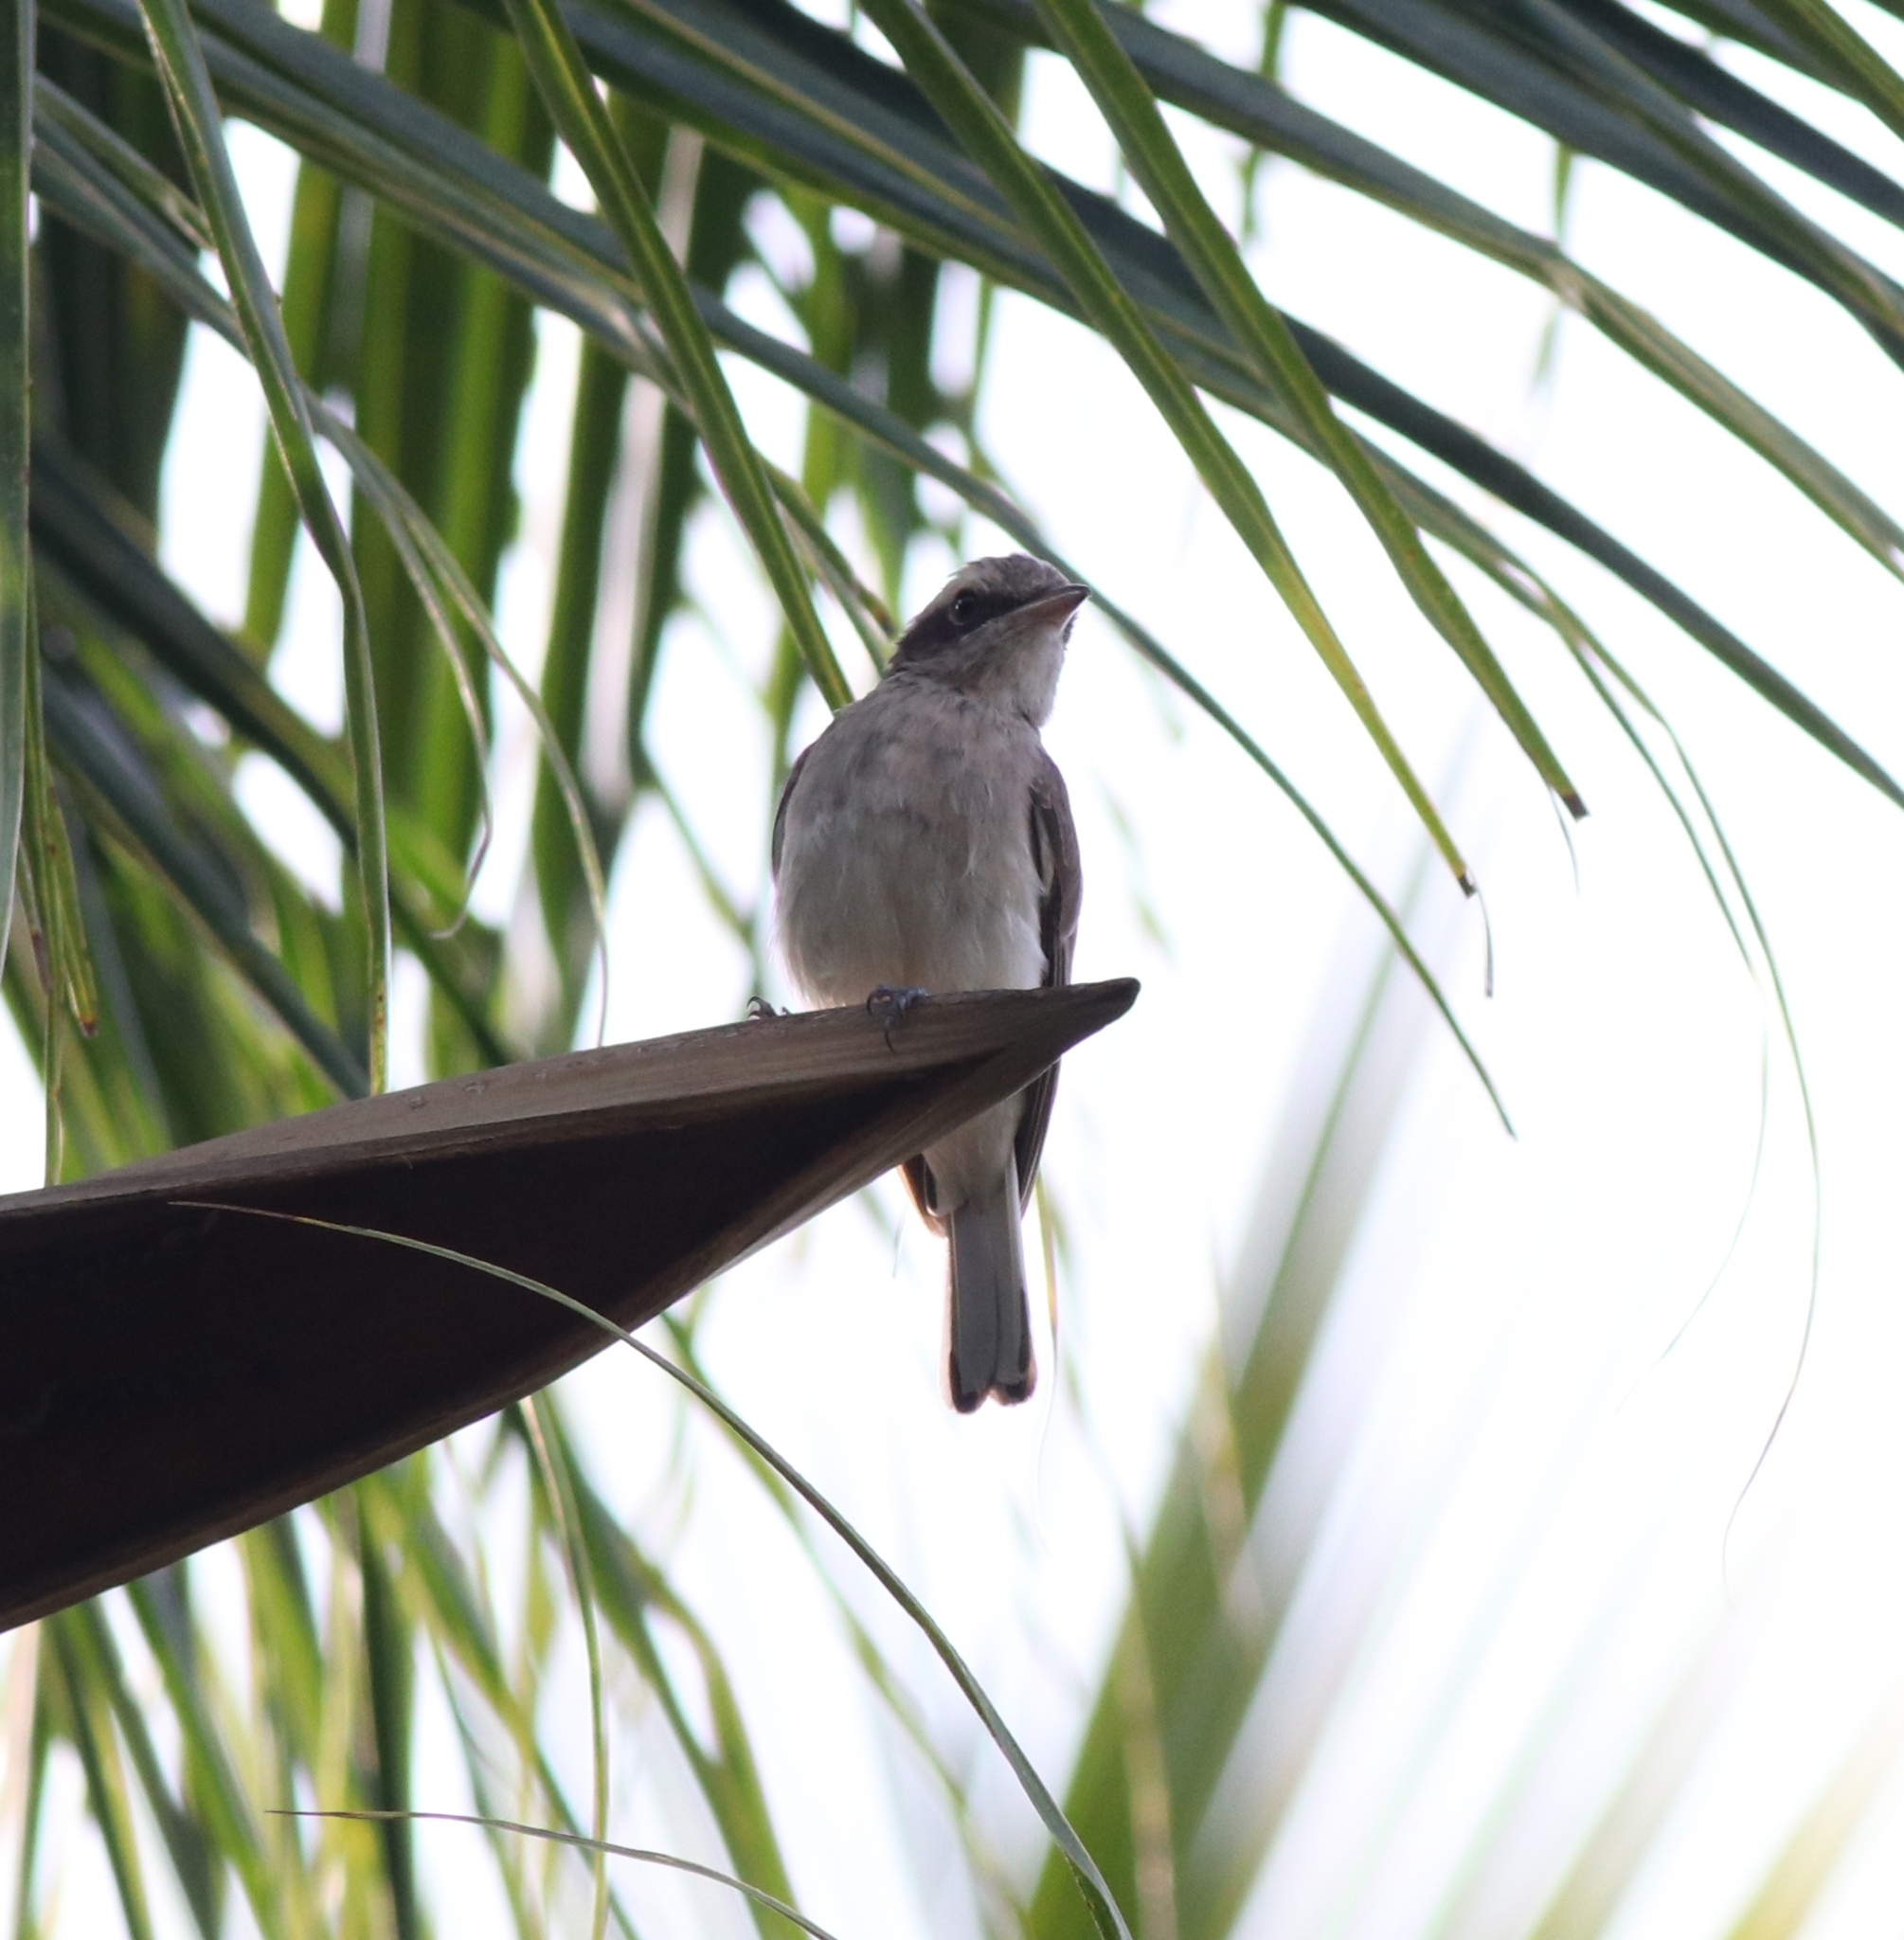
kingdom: Animalia
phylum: Chordata
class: Aves
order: Passeriformes
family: Tephrodornithidae
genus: Tephrodornis
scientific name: Tephrodornis pondicerianus
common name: Common woodshrike
